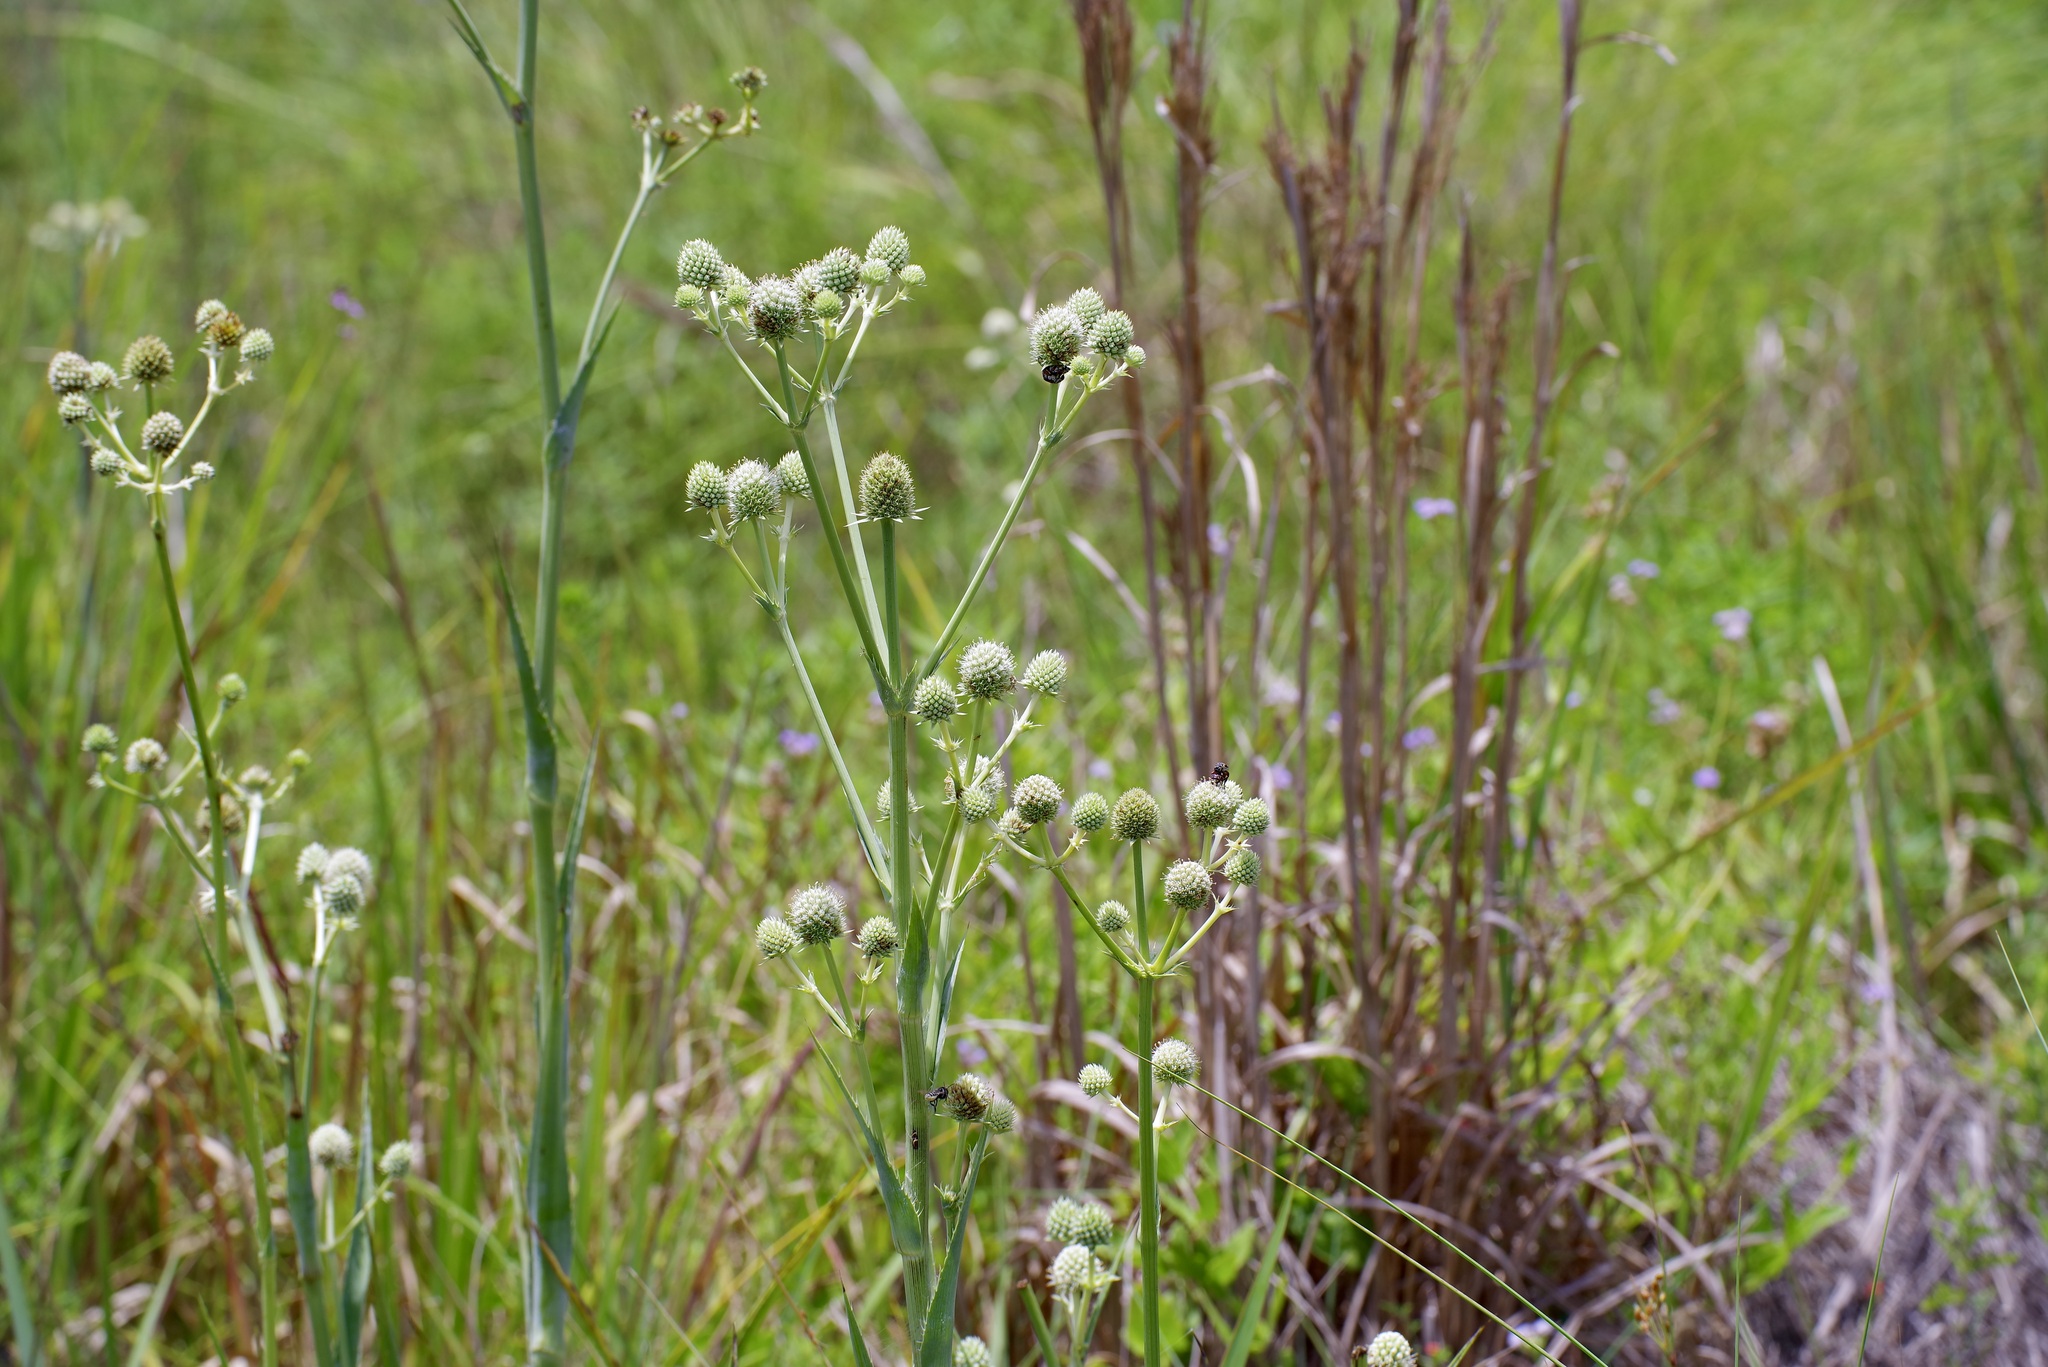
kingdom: Plantae
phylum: Tracheophyta
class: Magnoliopsida
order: Apiales
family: Apiaceae
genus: Eryngium
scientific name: Eryngium yuccifolium
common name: Button eryngo
